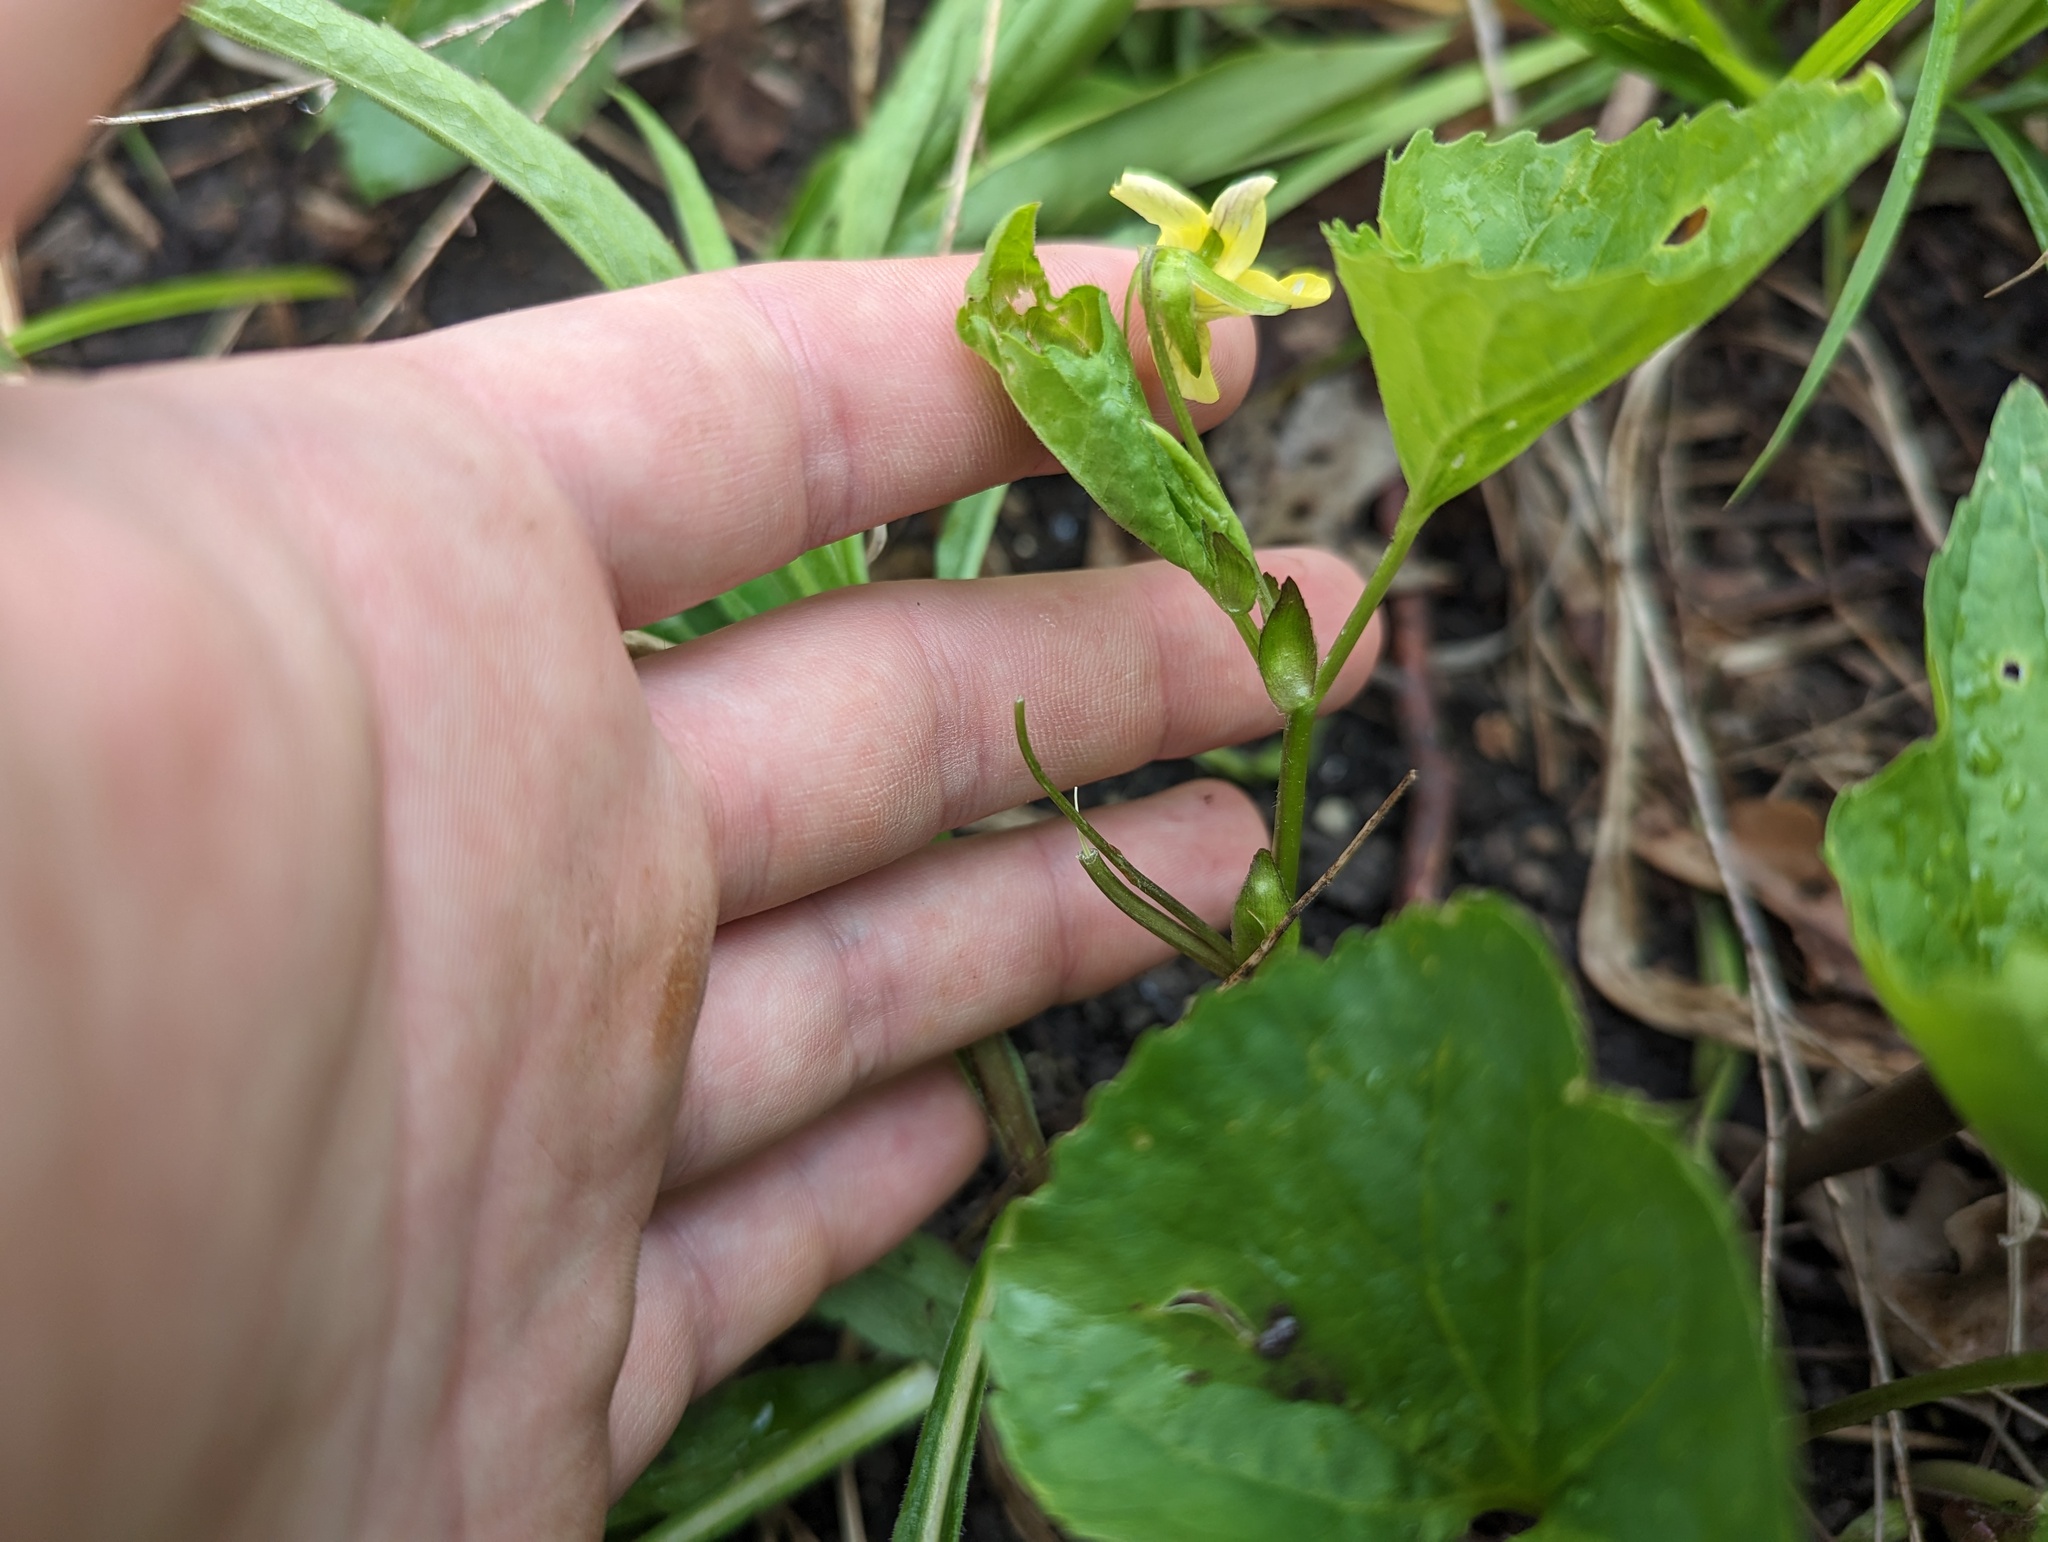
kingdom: Plantae
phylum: Tracheophyta
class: Magnoliopsida
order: Malpighiales
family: Violaceae
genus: Viola
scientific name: Viola eriocarpa
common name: Smooth yellow violet
